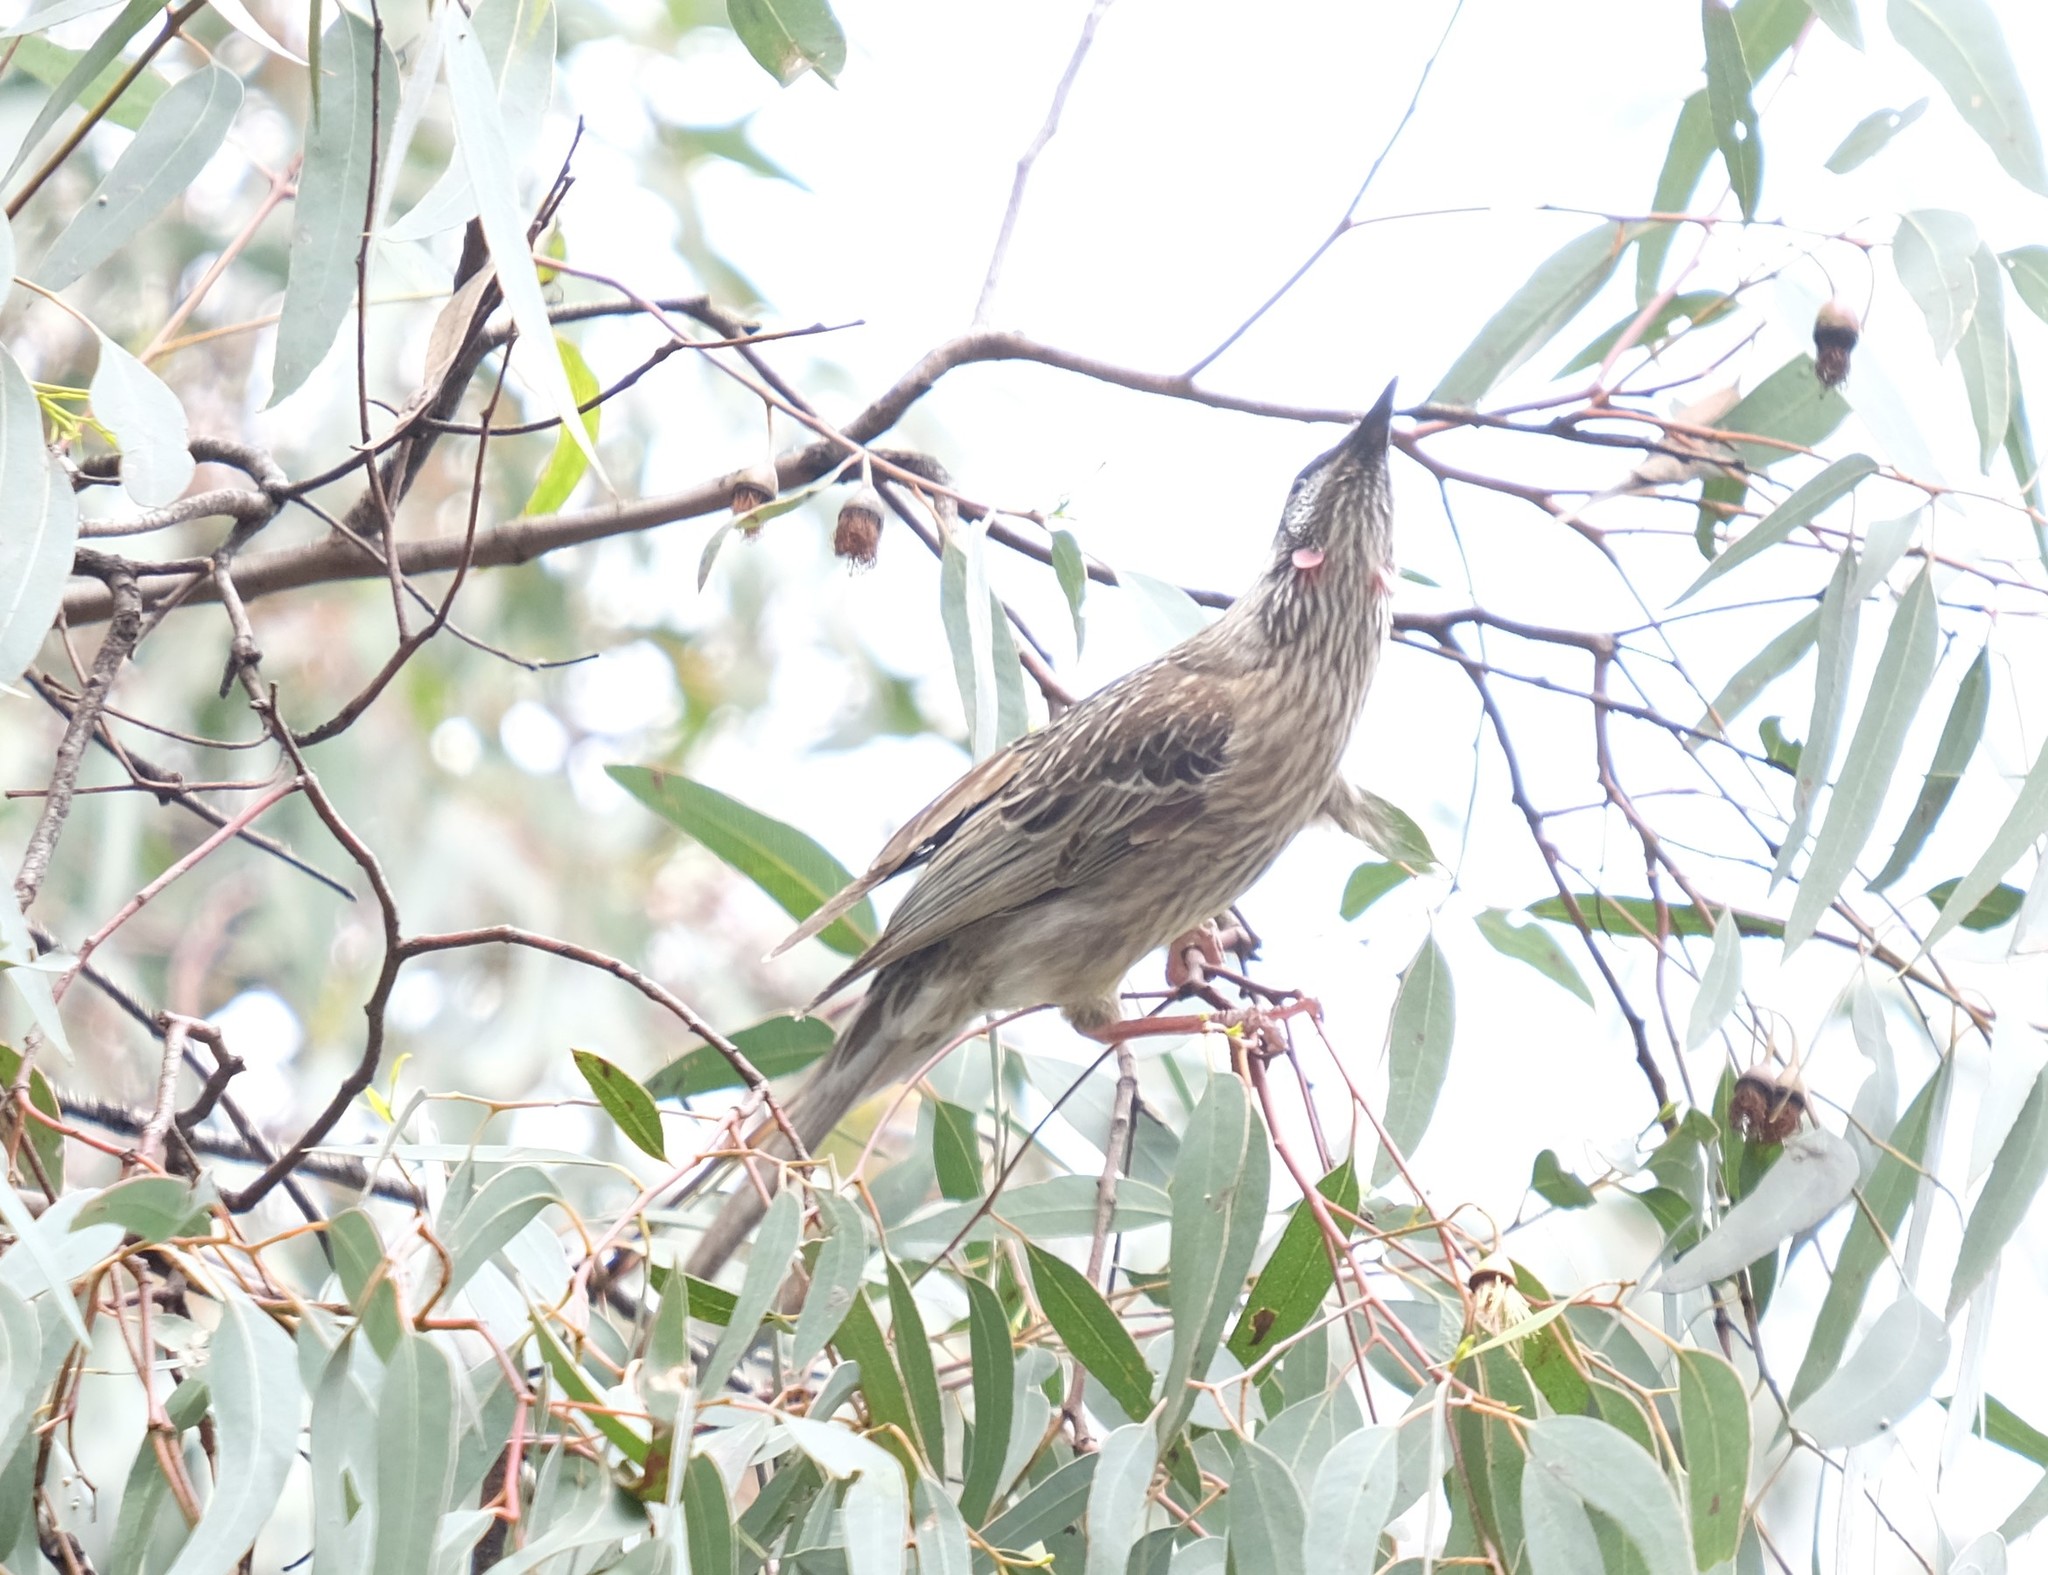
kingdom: Animalia
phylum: Chordata
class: Aves
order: Passeriformes
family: Meliphagidae
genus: Anthochaera
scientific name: Anthochaera carunculata
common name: Red wattlebird
